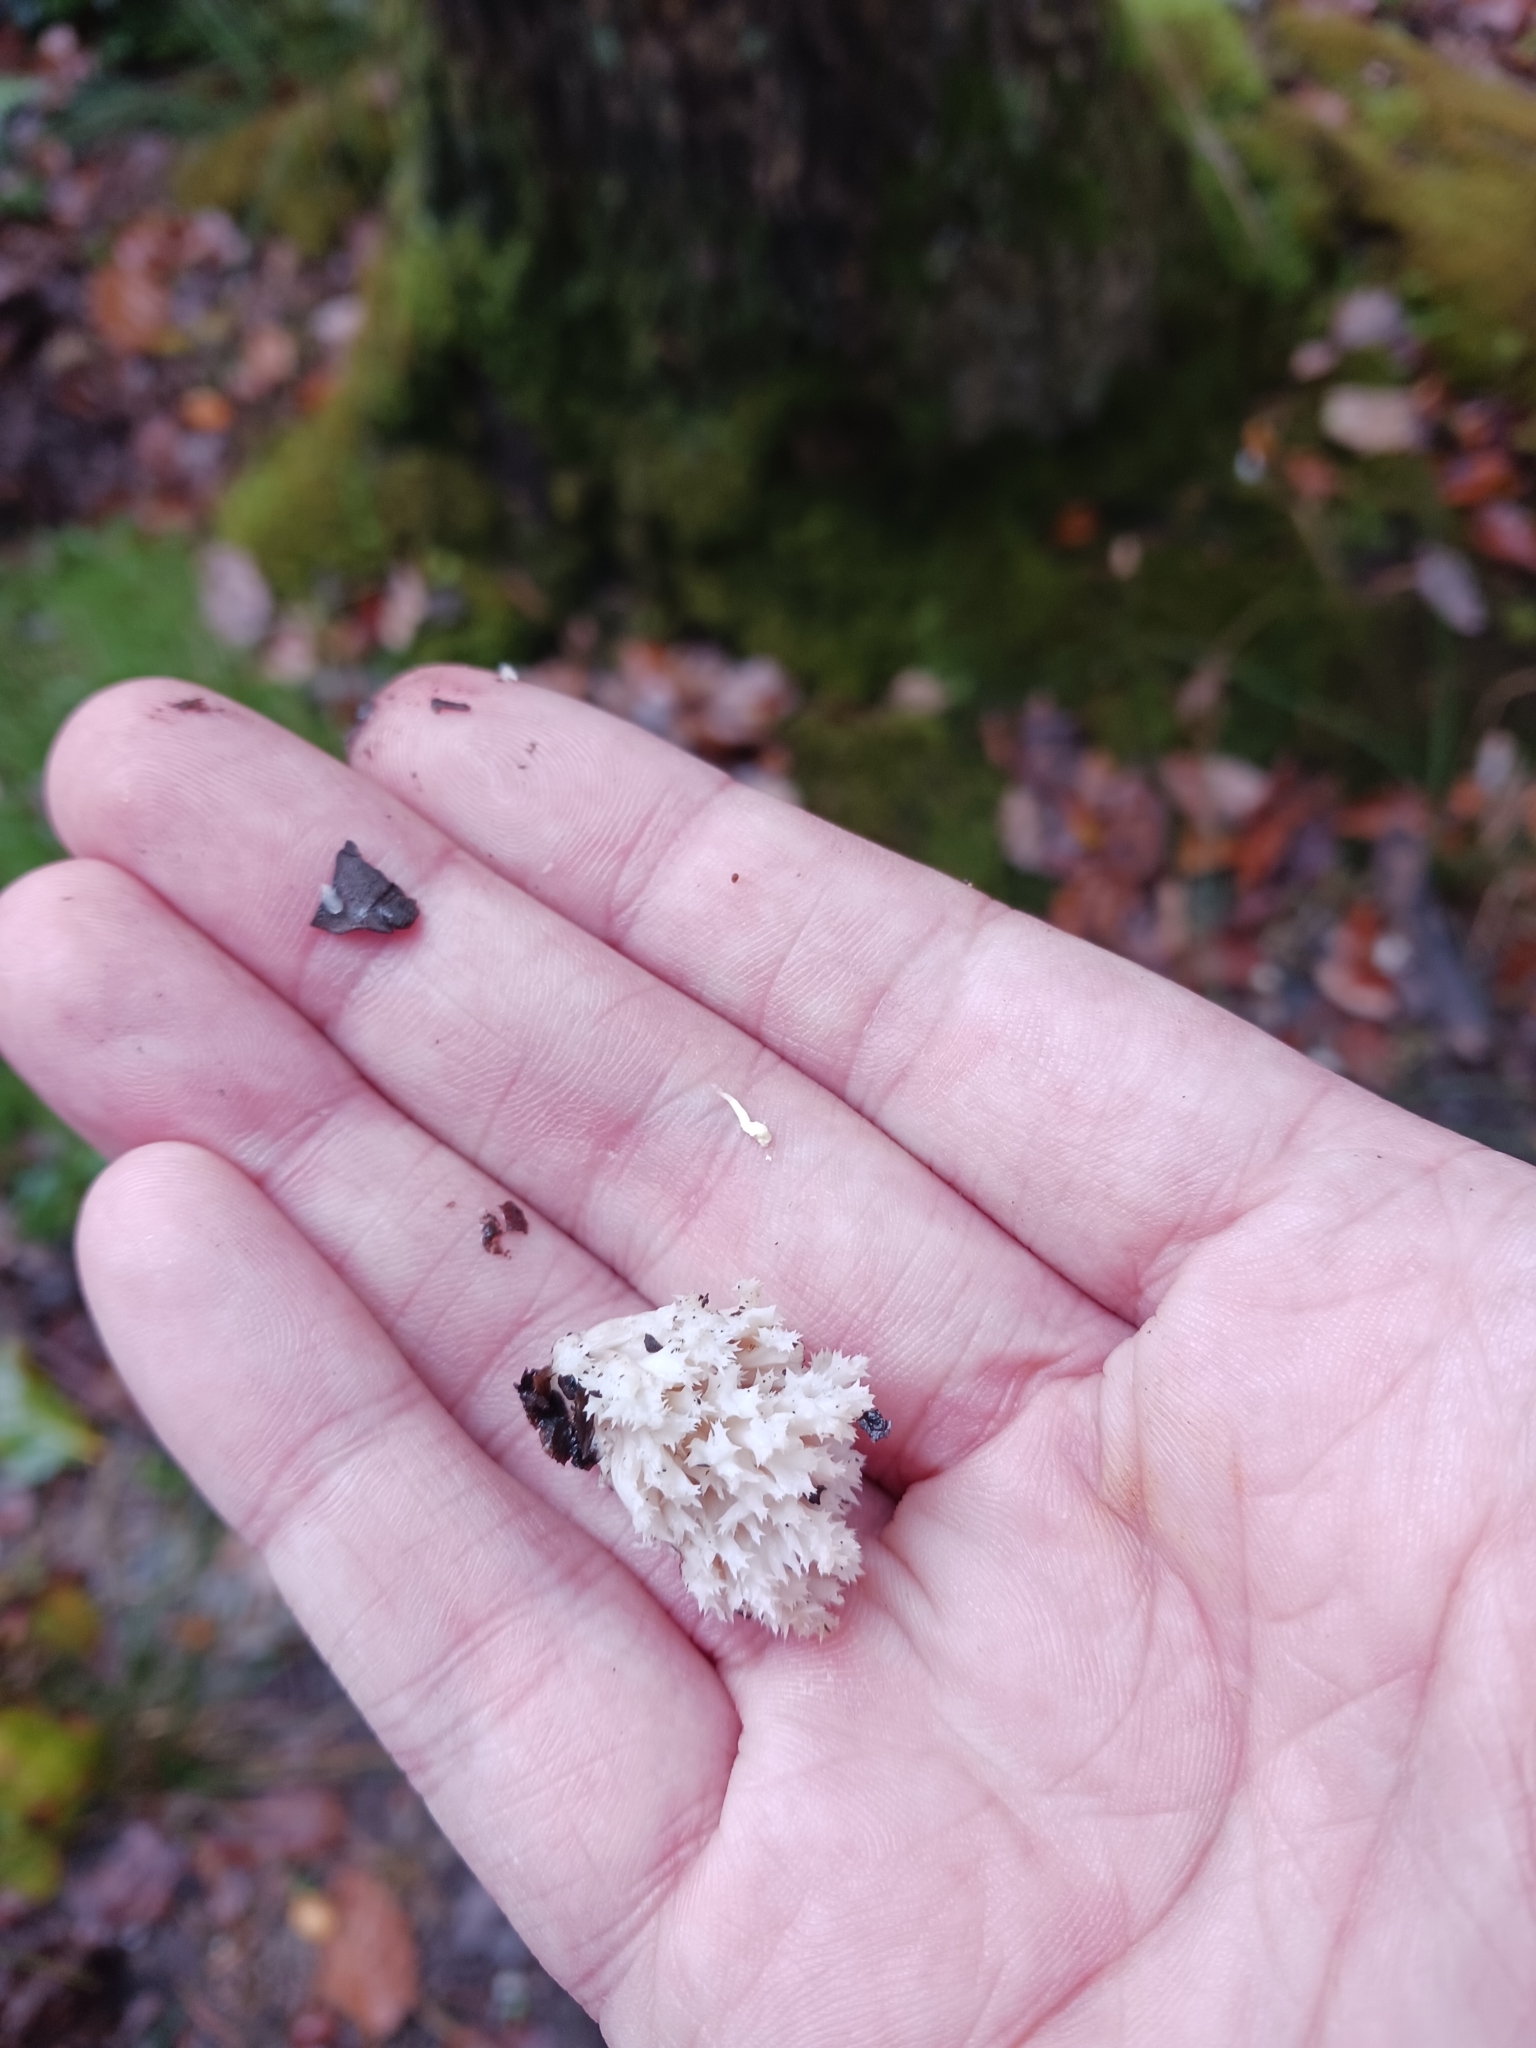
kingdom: Fungi
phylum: Basidiomycota
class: Agaricomycetes
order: Cantharellales
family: Hydnaceae
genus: Clavulina
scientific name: Clavulina coralloides
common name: Crested coral
